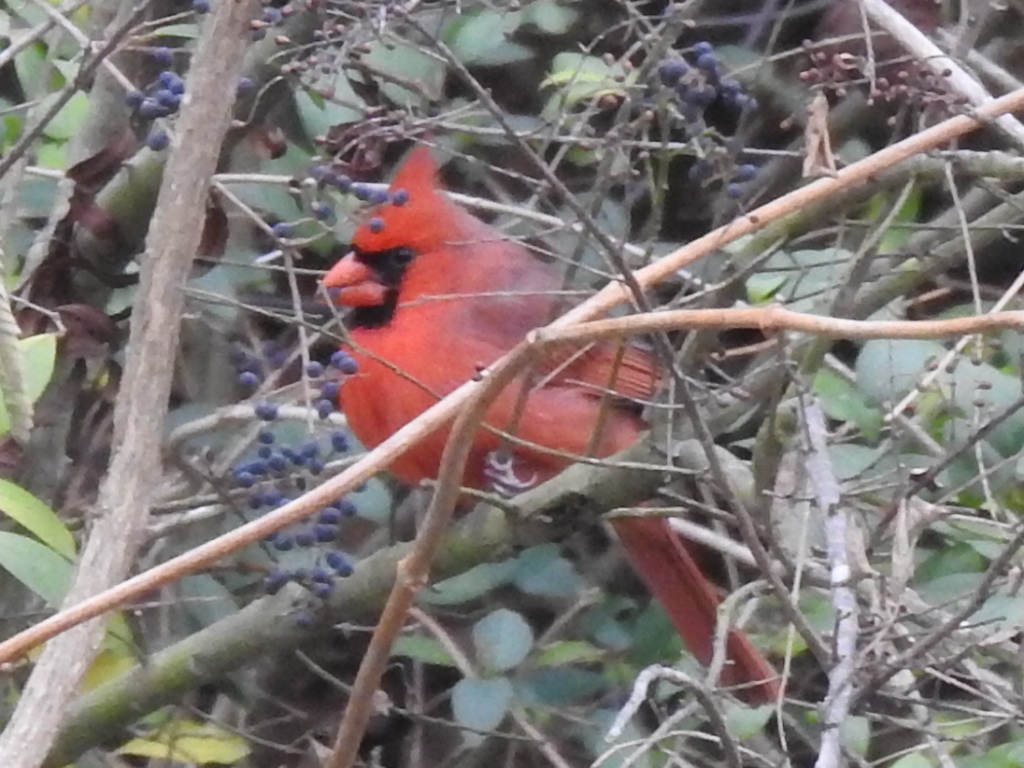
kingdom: Animalia
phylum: Chordata
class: Aves
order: Passeriformes
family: Cardinalidae
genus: Cardinalis
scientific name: Cardinalis cardinalis
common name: Northern cardinal
